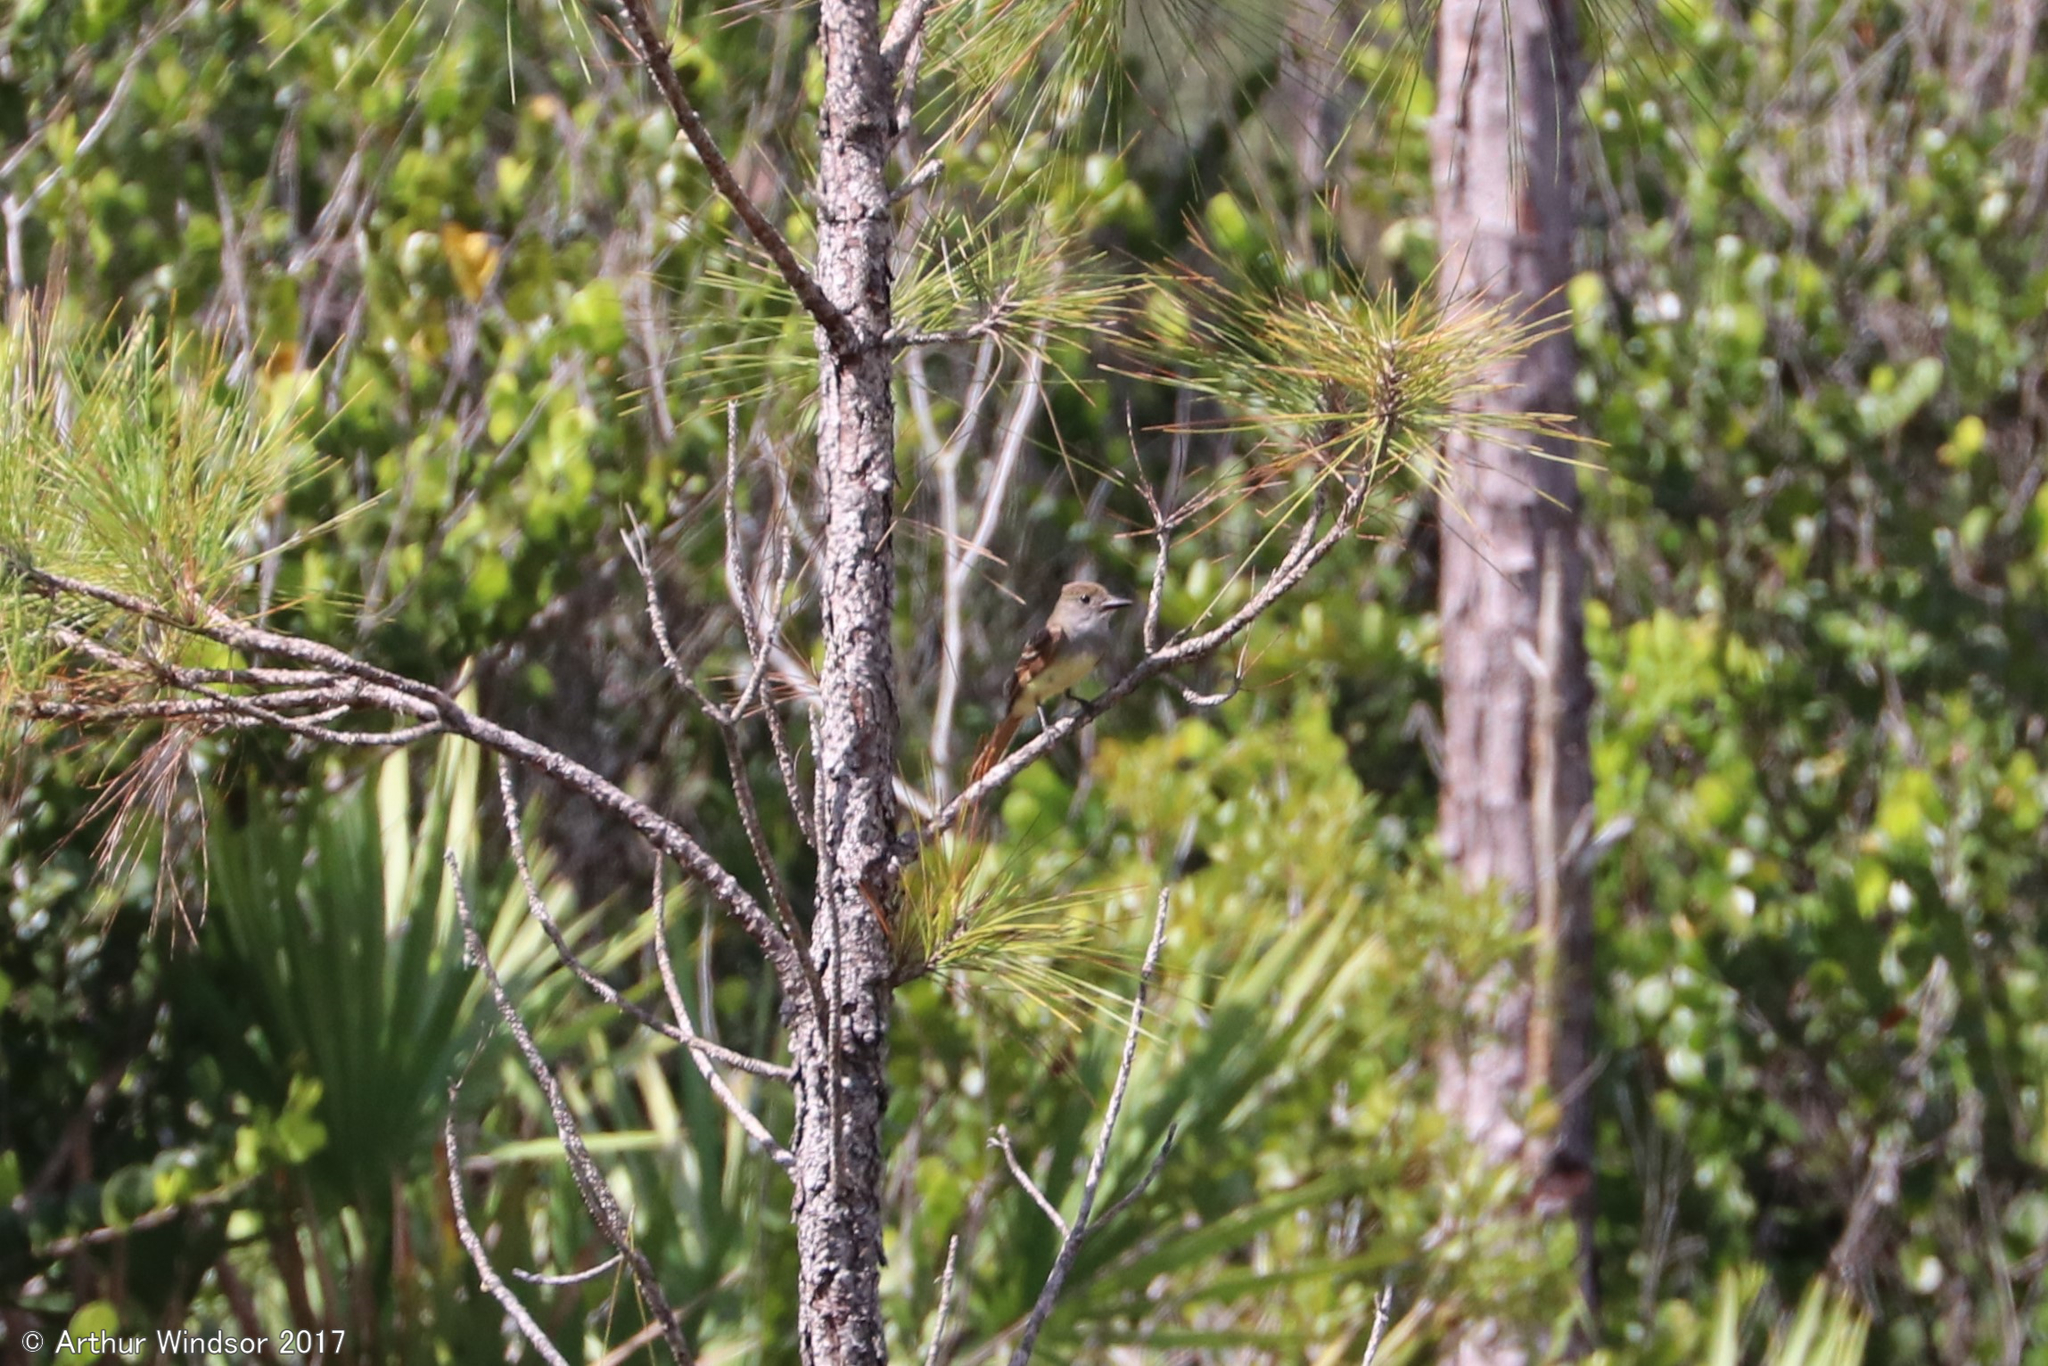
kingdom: Animalia
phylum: Chordata
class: Aves
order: Passeriformes
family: Tyrannidae
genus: Myiarchus
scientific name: Myiarchus crinitus
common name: Great crested flycatcher
